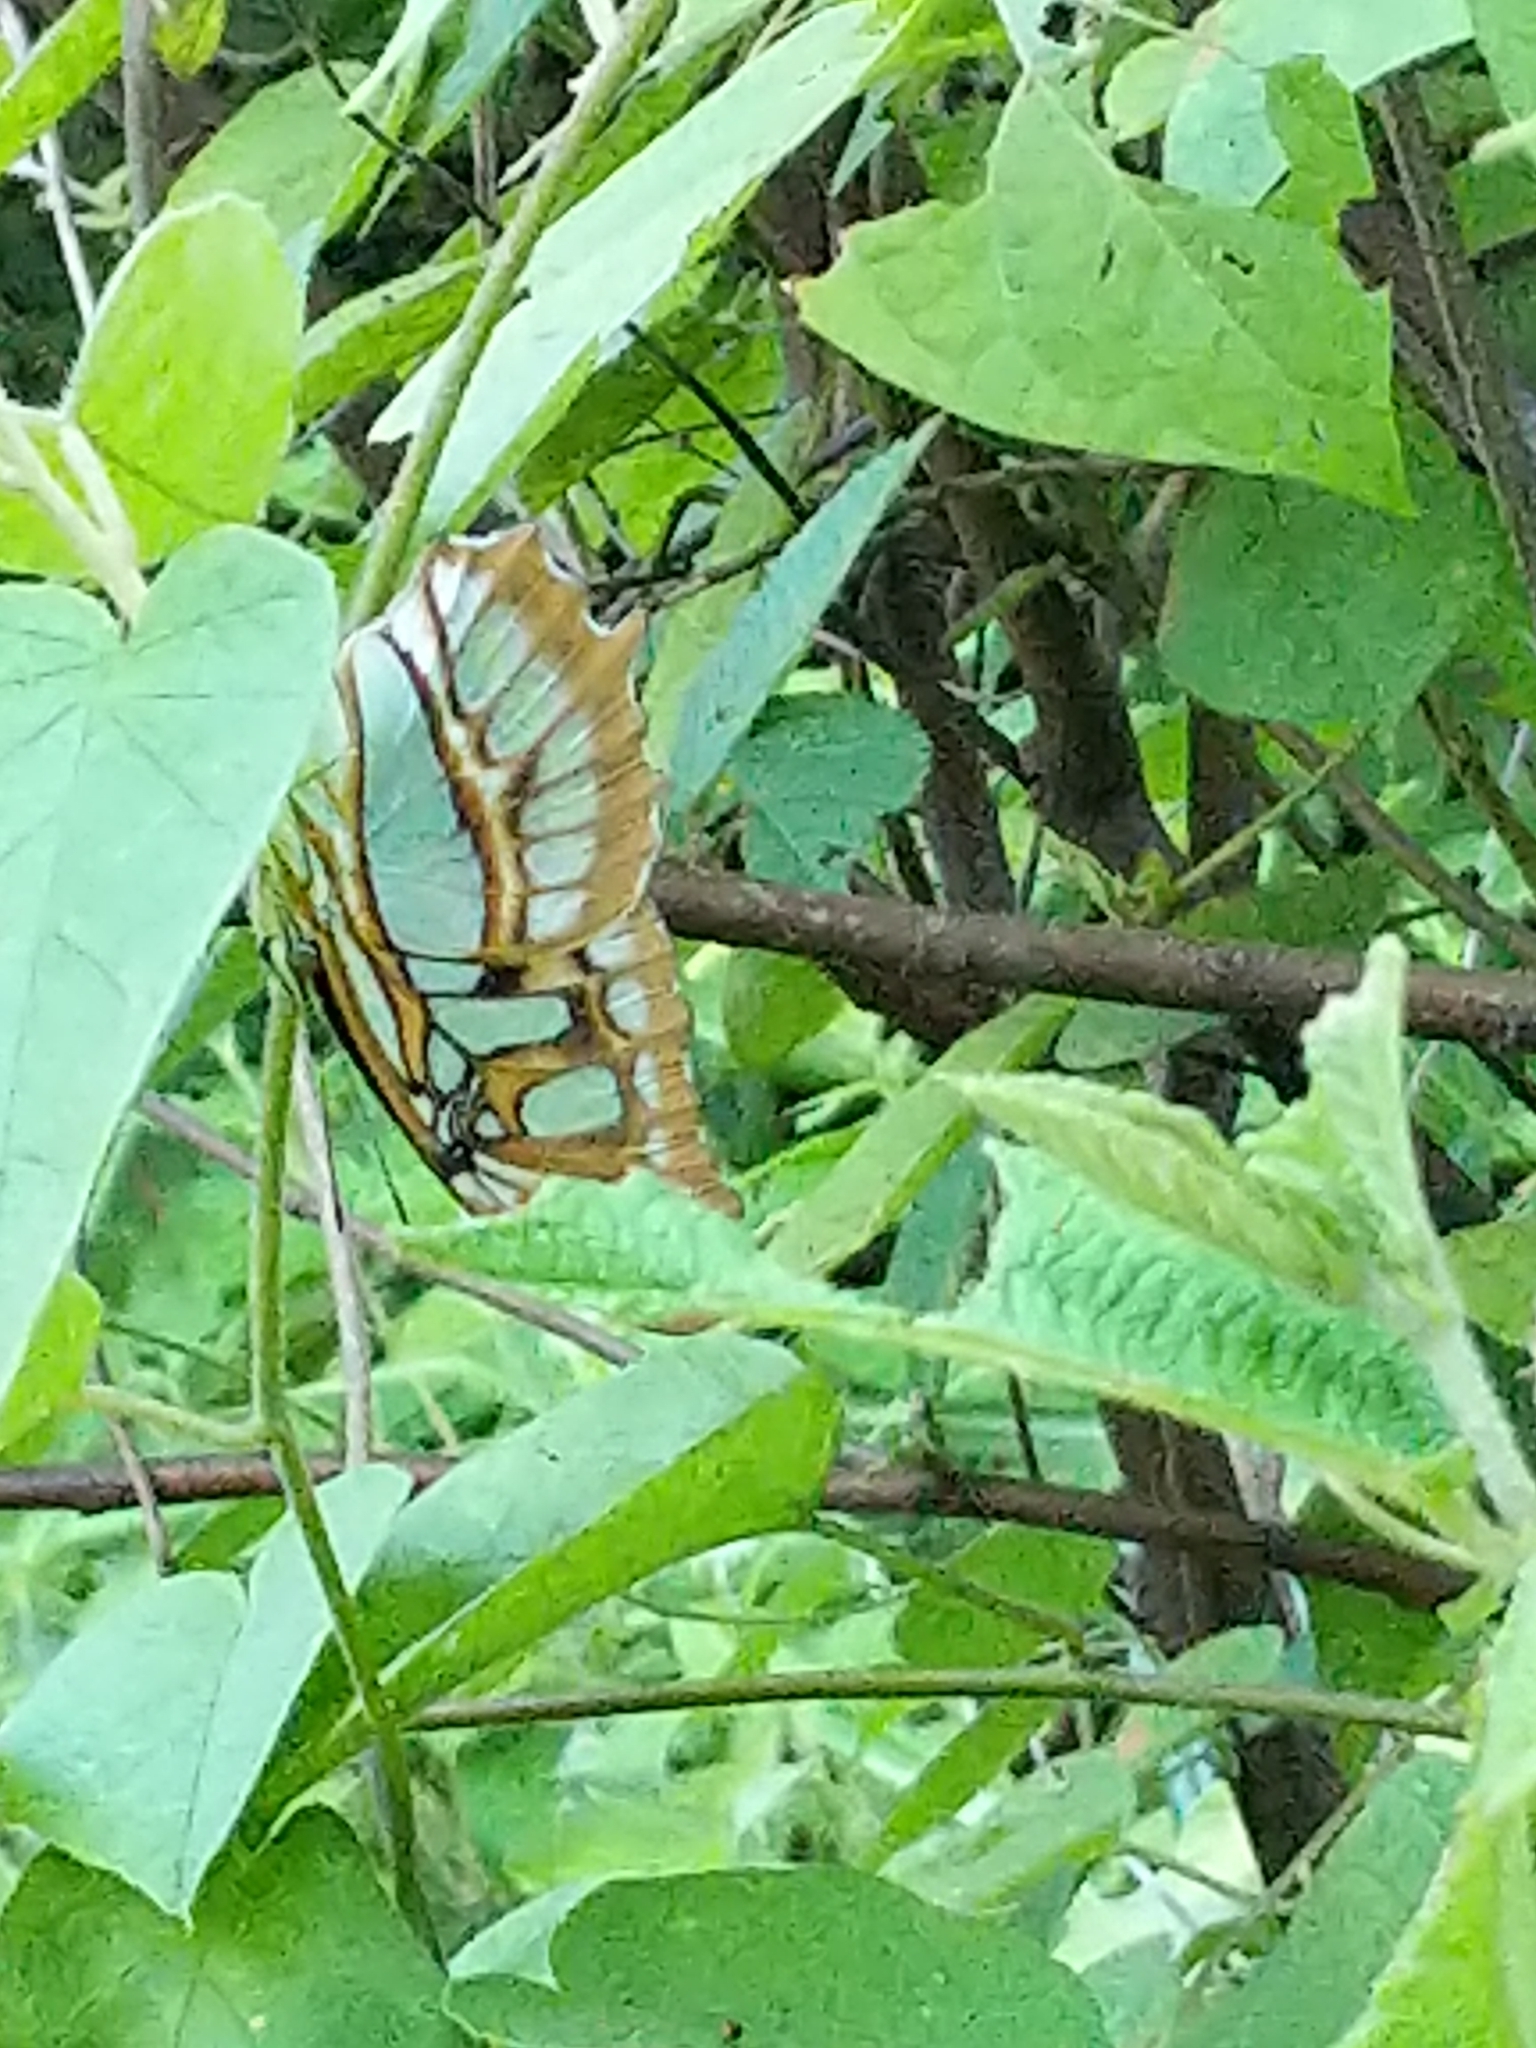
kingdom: Animalia
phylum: Arthropoda
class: Insecta
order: Lepidoptera
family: Nymphalidae
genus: Siproeta
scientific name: Siproeta stelenes
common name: Malachite
